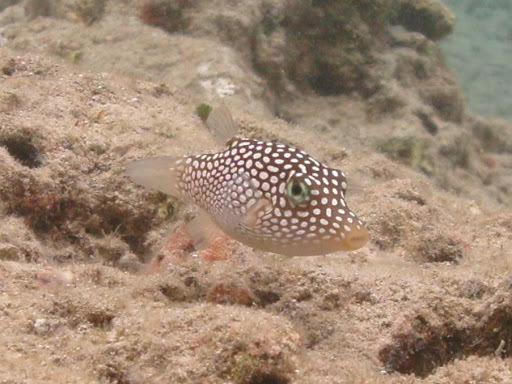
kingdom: Animalia
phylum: Chordata
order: Tetraodontiformes
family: Tetraodontidae
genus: Canthigaster
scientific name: Canthigaster jactator
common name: Hawaiian whitespotted toby
